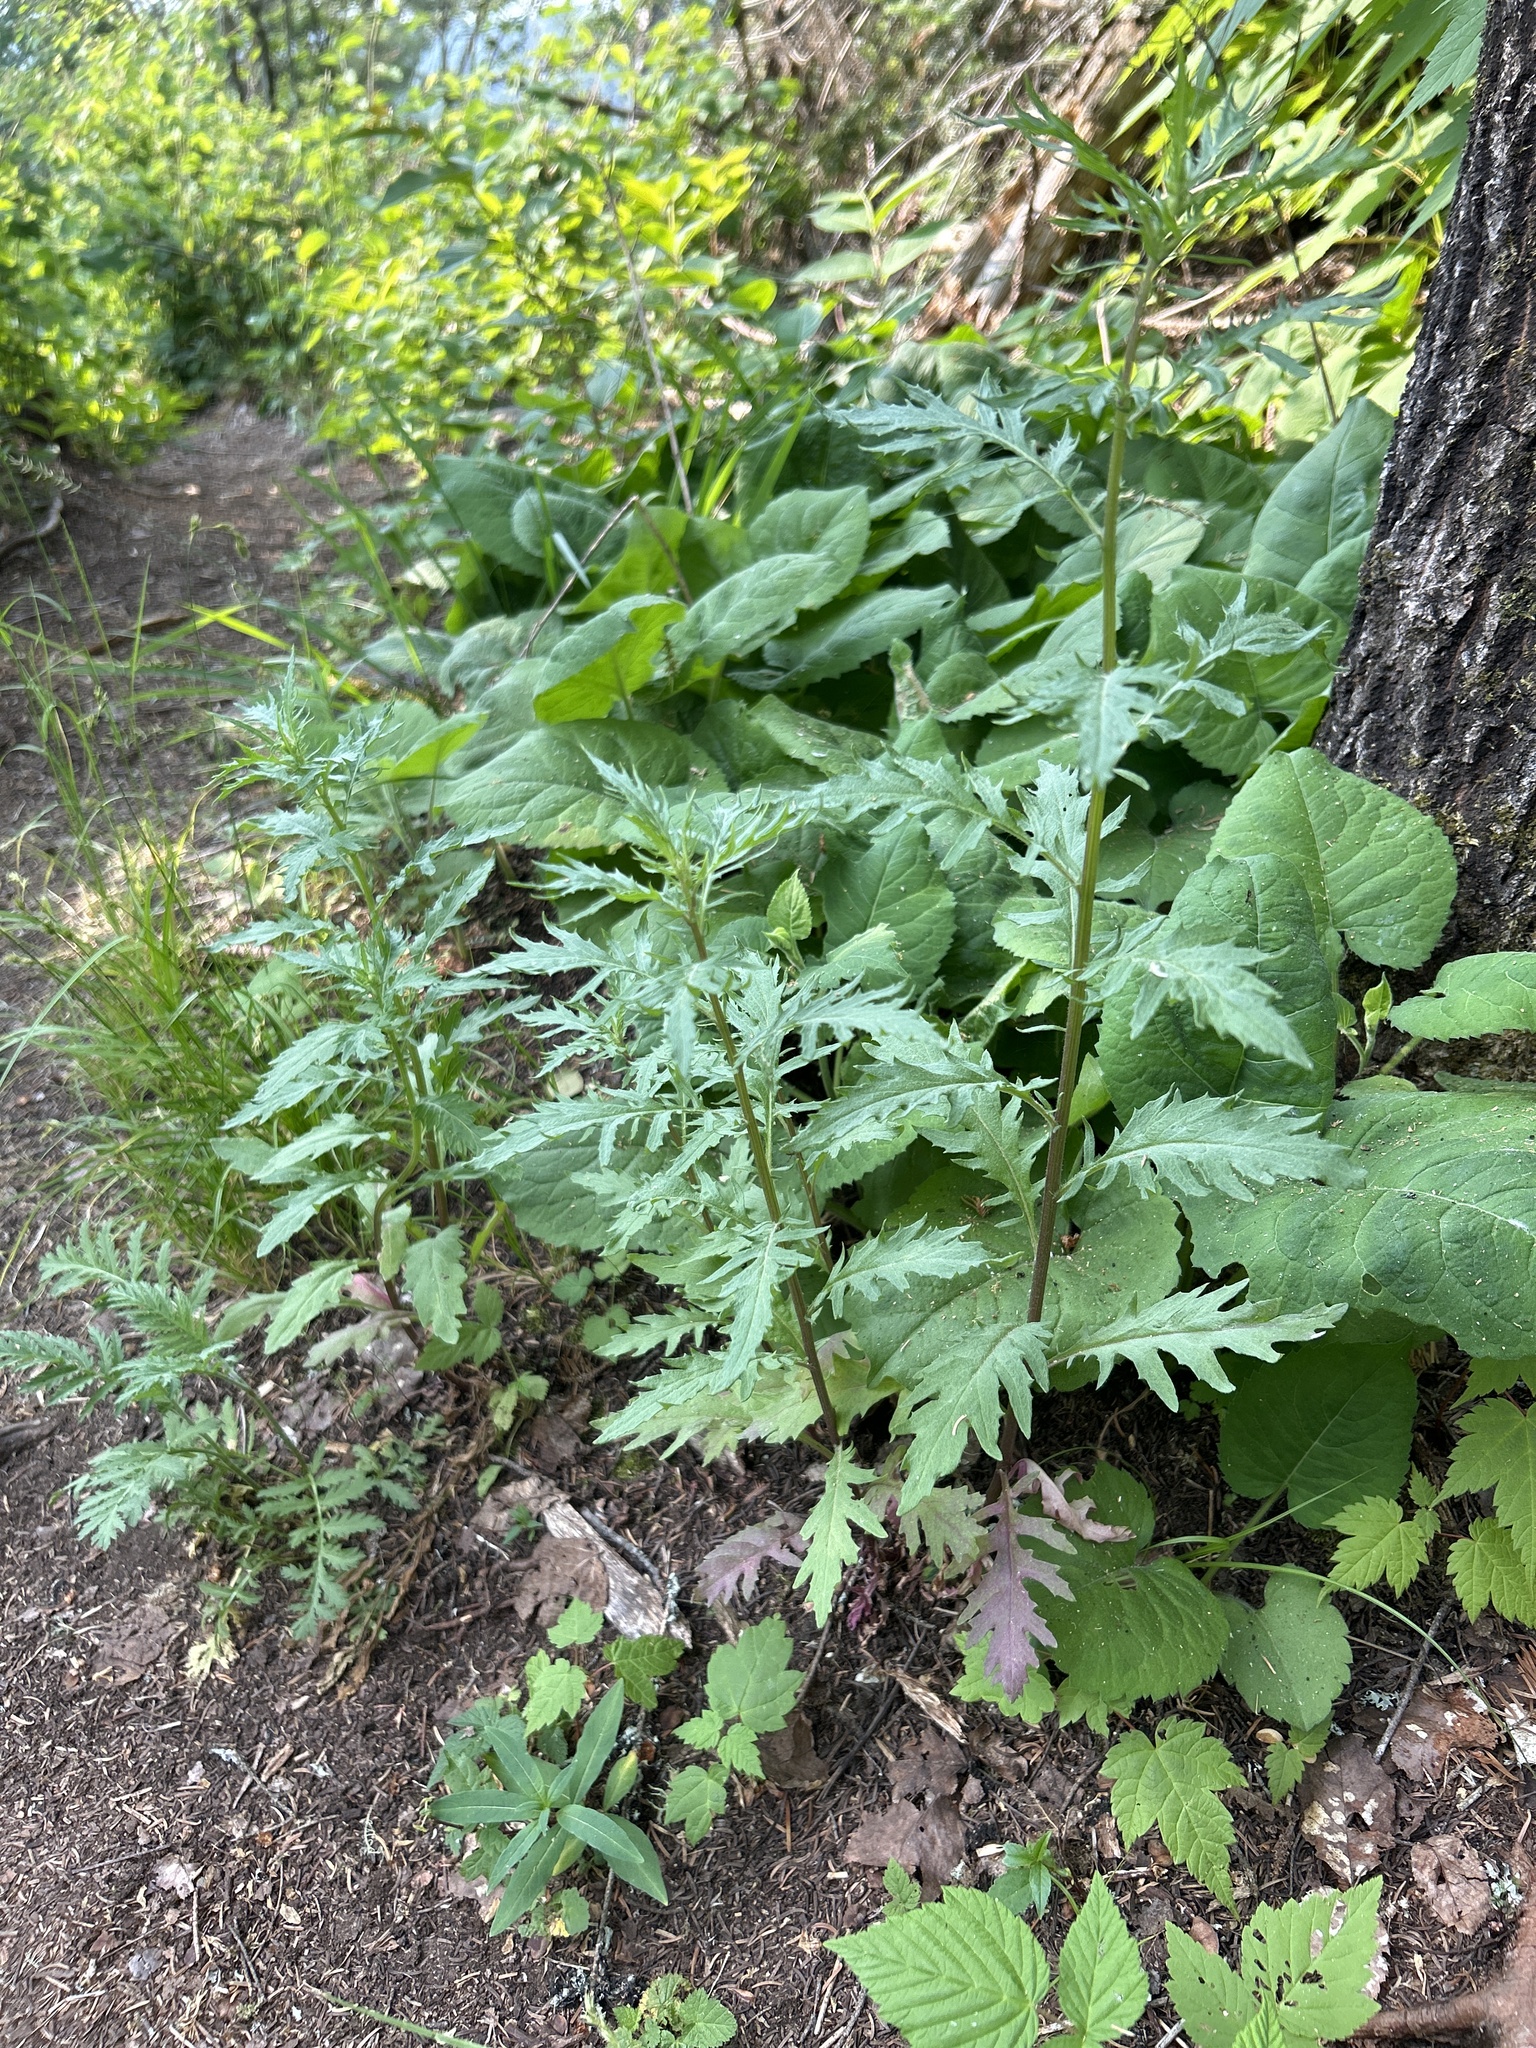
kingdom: Plantae
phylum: Tracheophyta
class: Magnoliopsida
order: Asterales
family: Asteraceae
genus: Senecio
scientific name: Senecio eremophilus
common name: Desert ragwort
